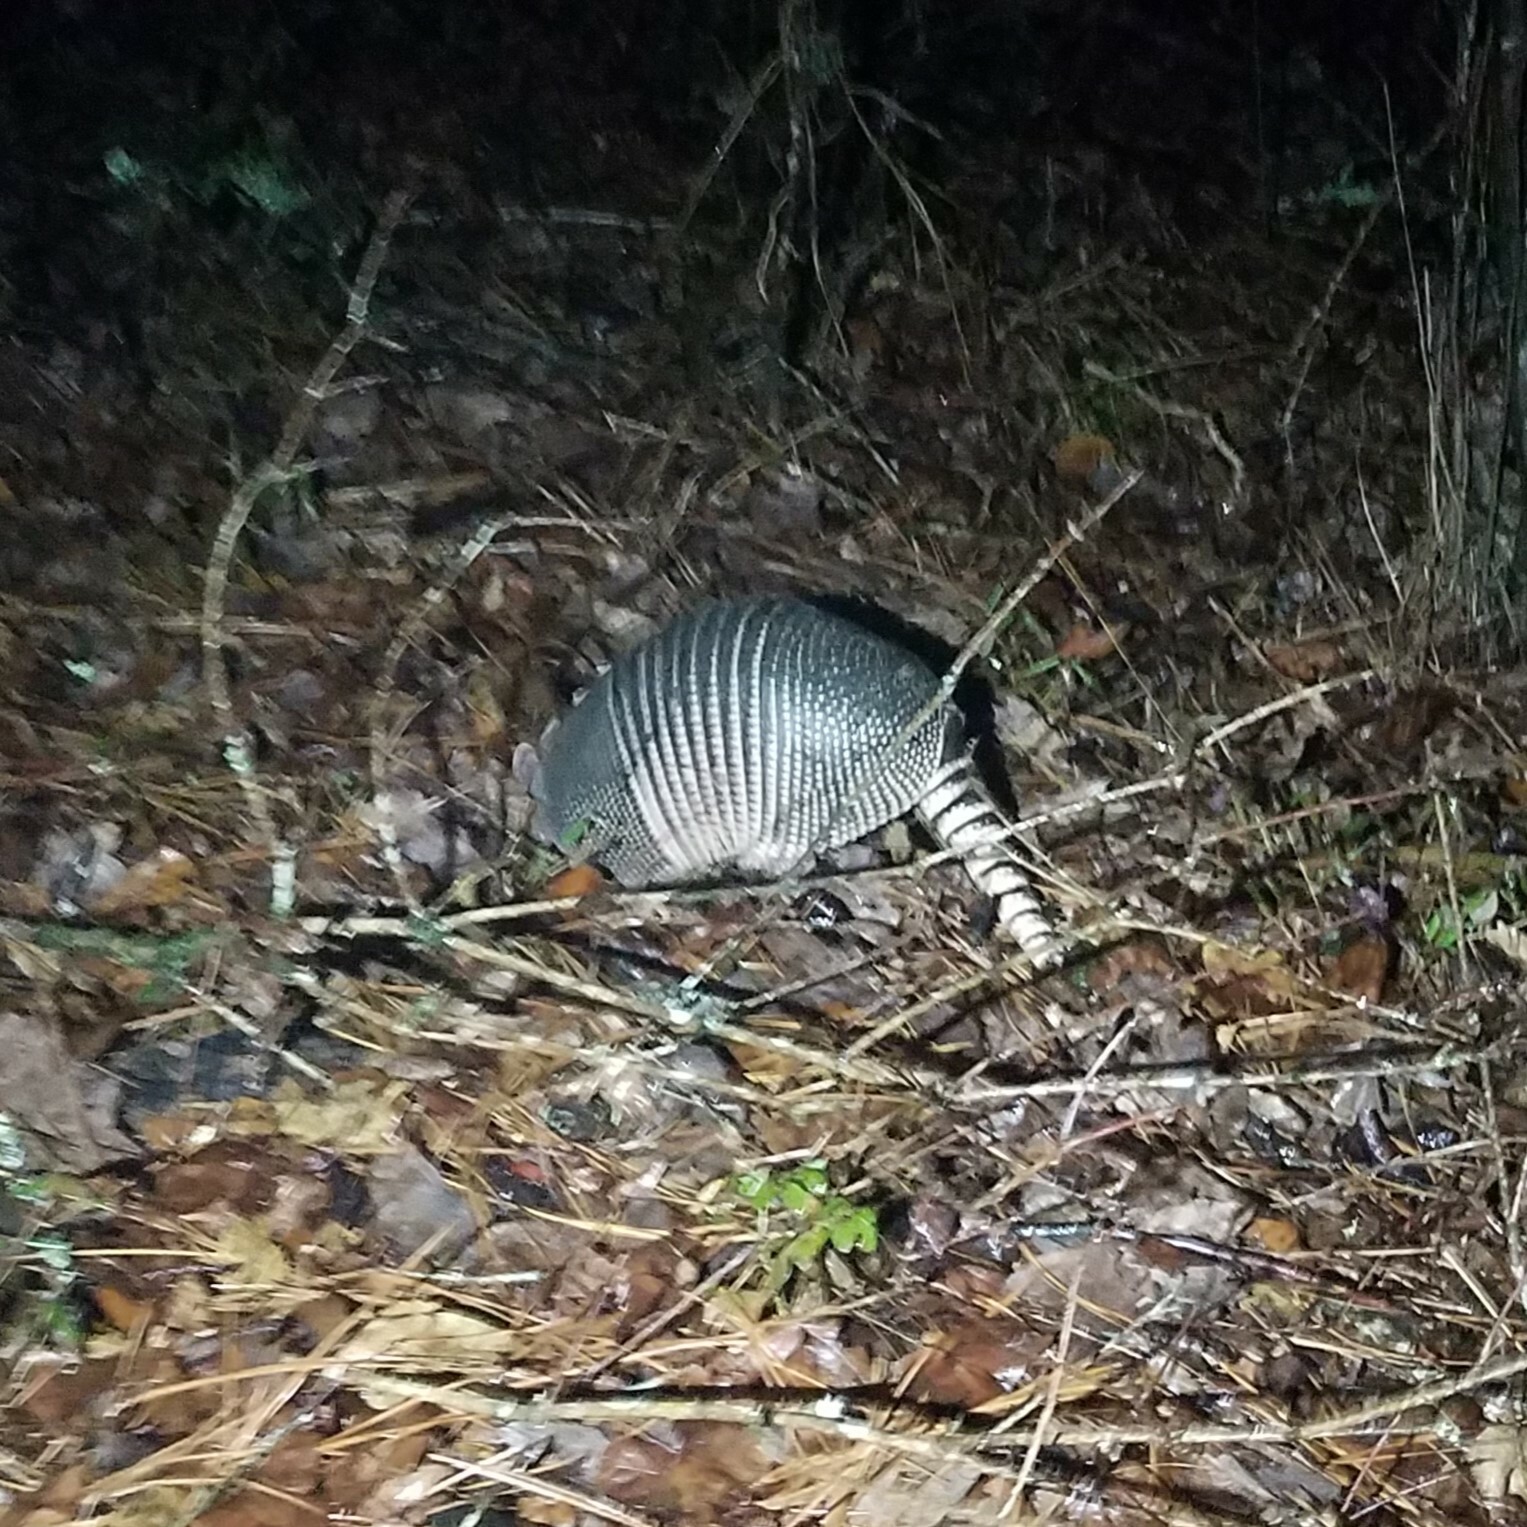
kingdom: Animalia
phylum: Chordata
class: Mammalia
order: Cingulata
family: Dasypodidae
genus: Dasypus
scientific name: Dasypus novemcinctus
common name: Nine-banded armadillo
